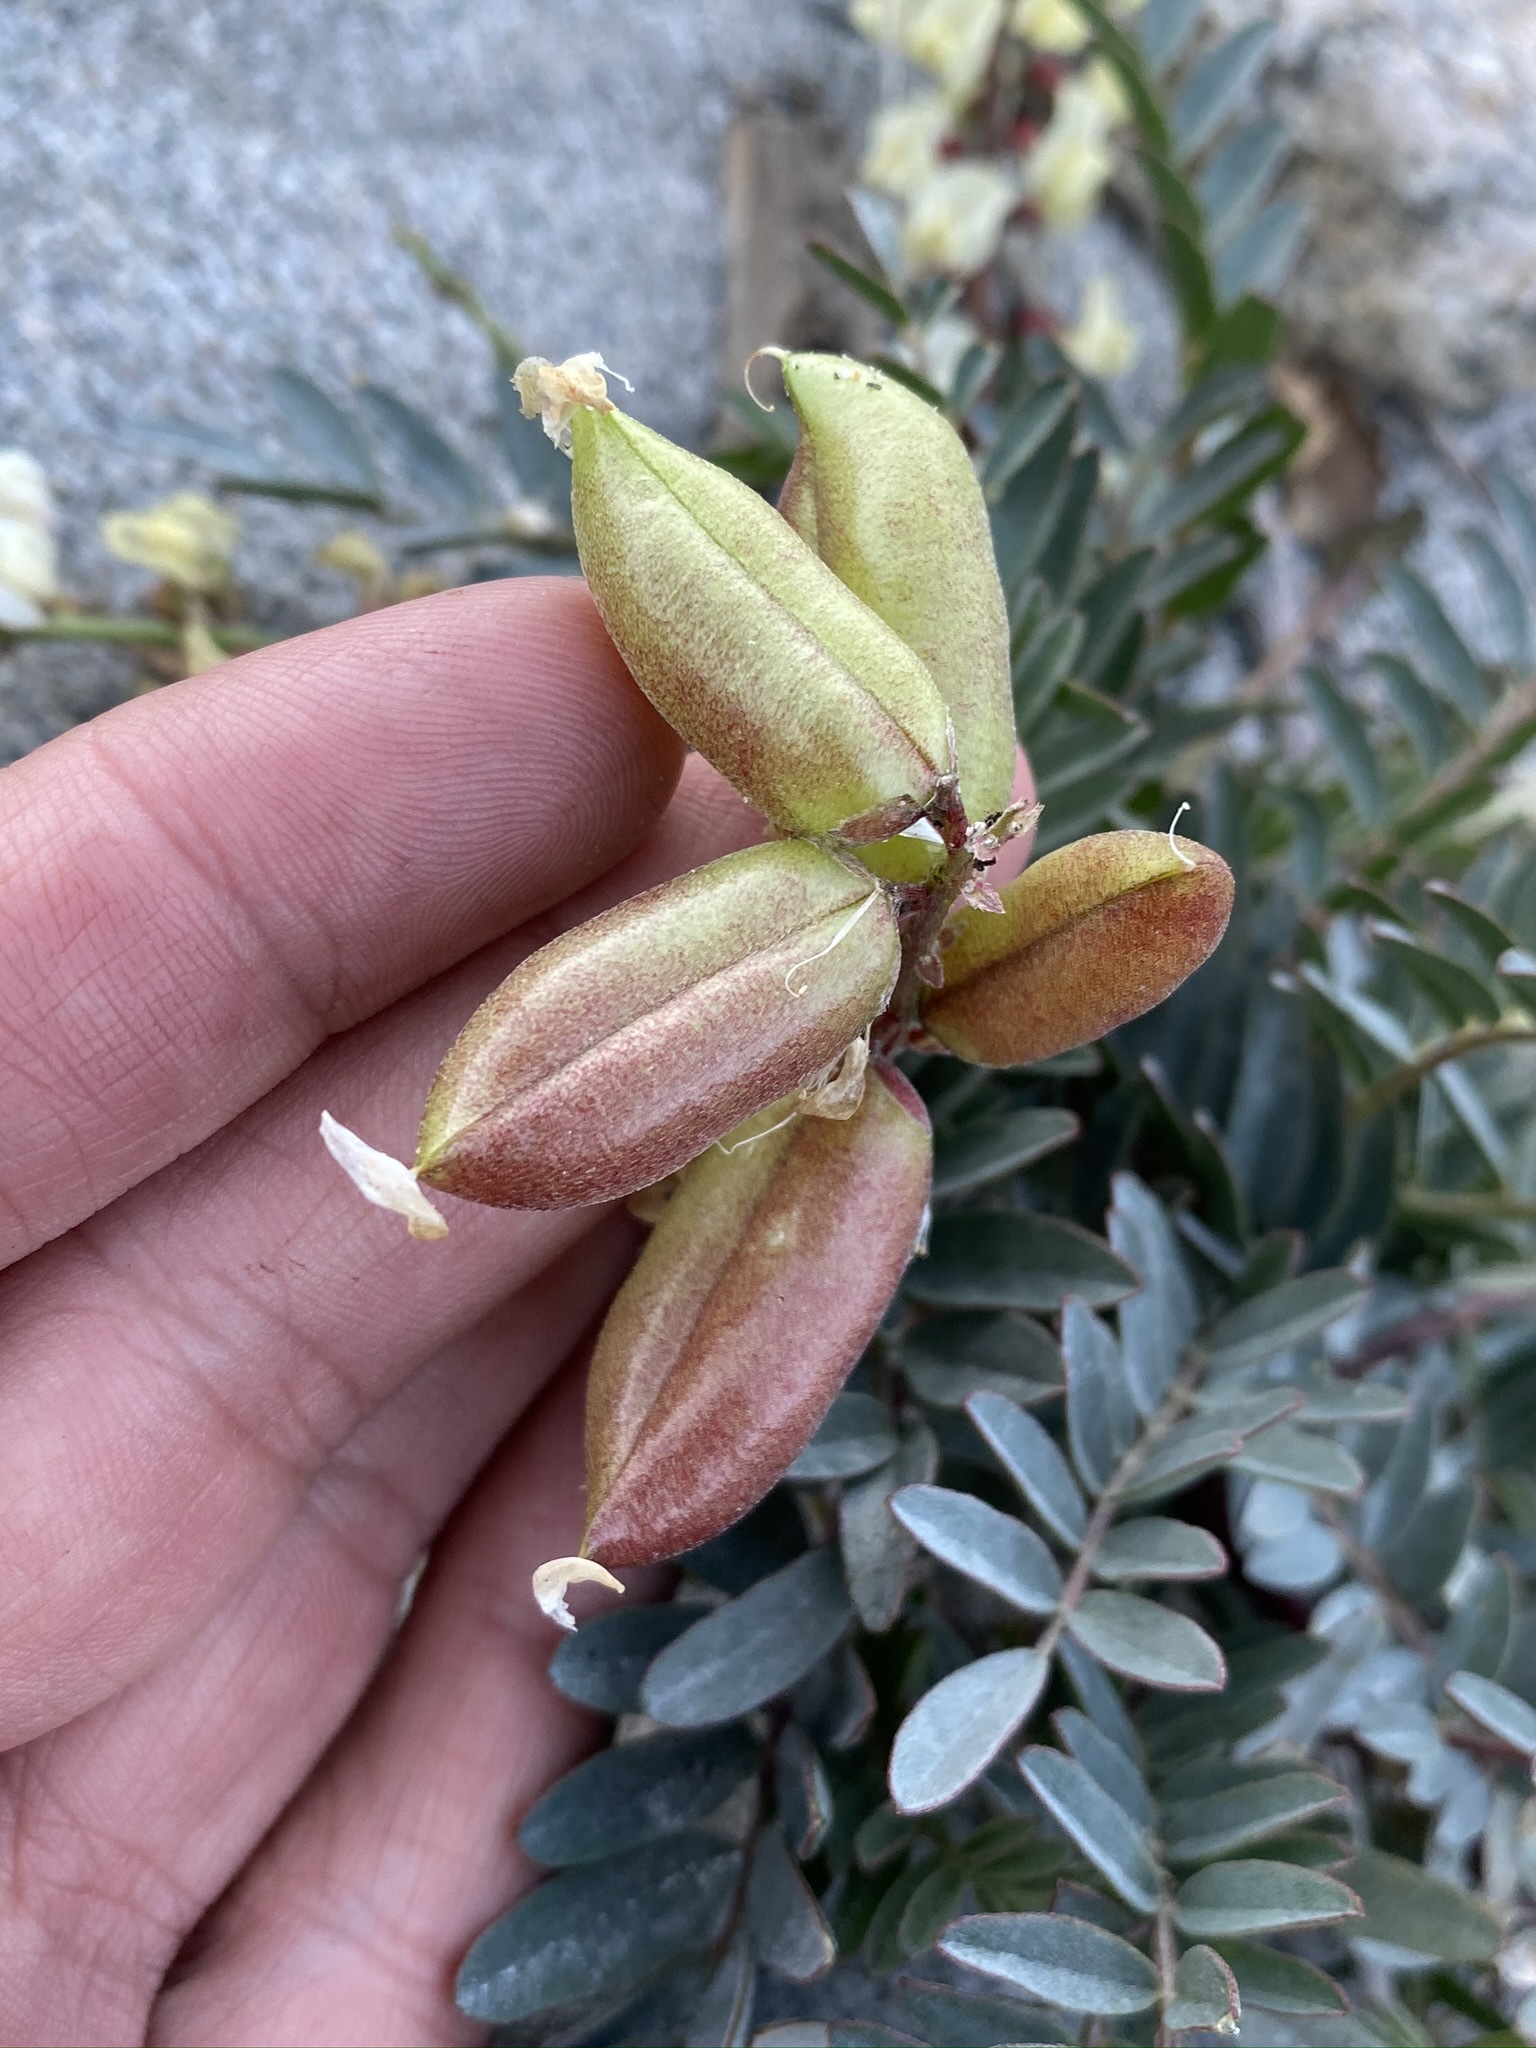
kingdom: Plantae
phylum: Tracheophyta
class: Magnoliopsida
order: Fabales
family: Fabaceae
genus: Astragalus
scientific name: Astragalus douglasii
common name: Jacumba milkvetch
